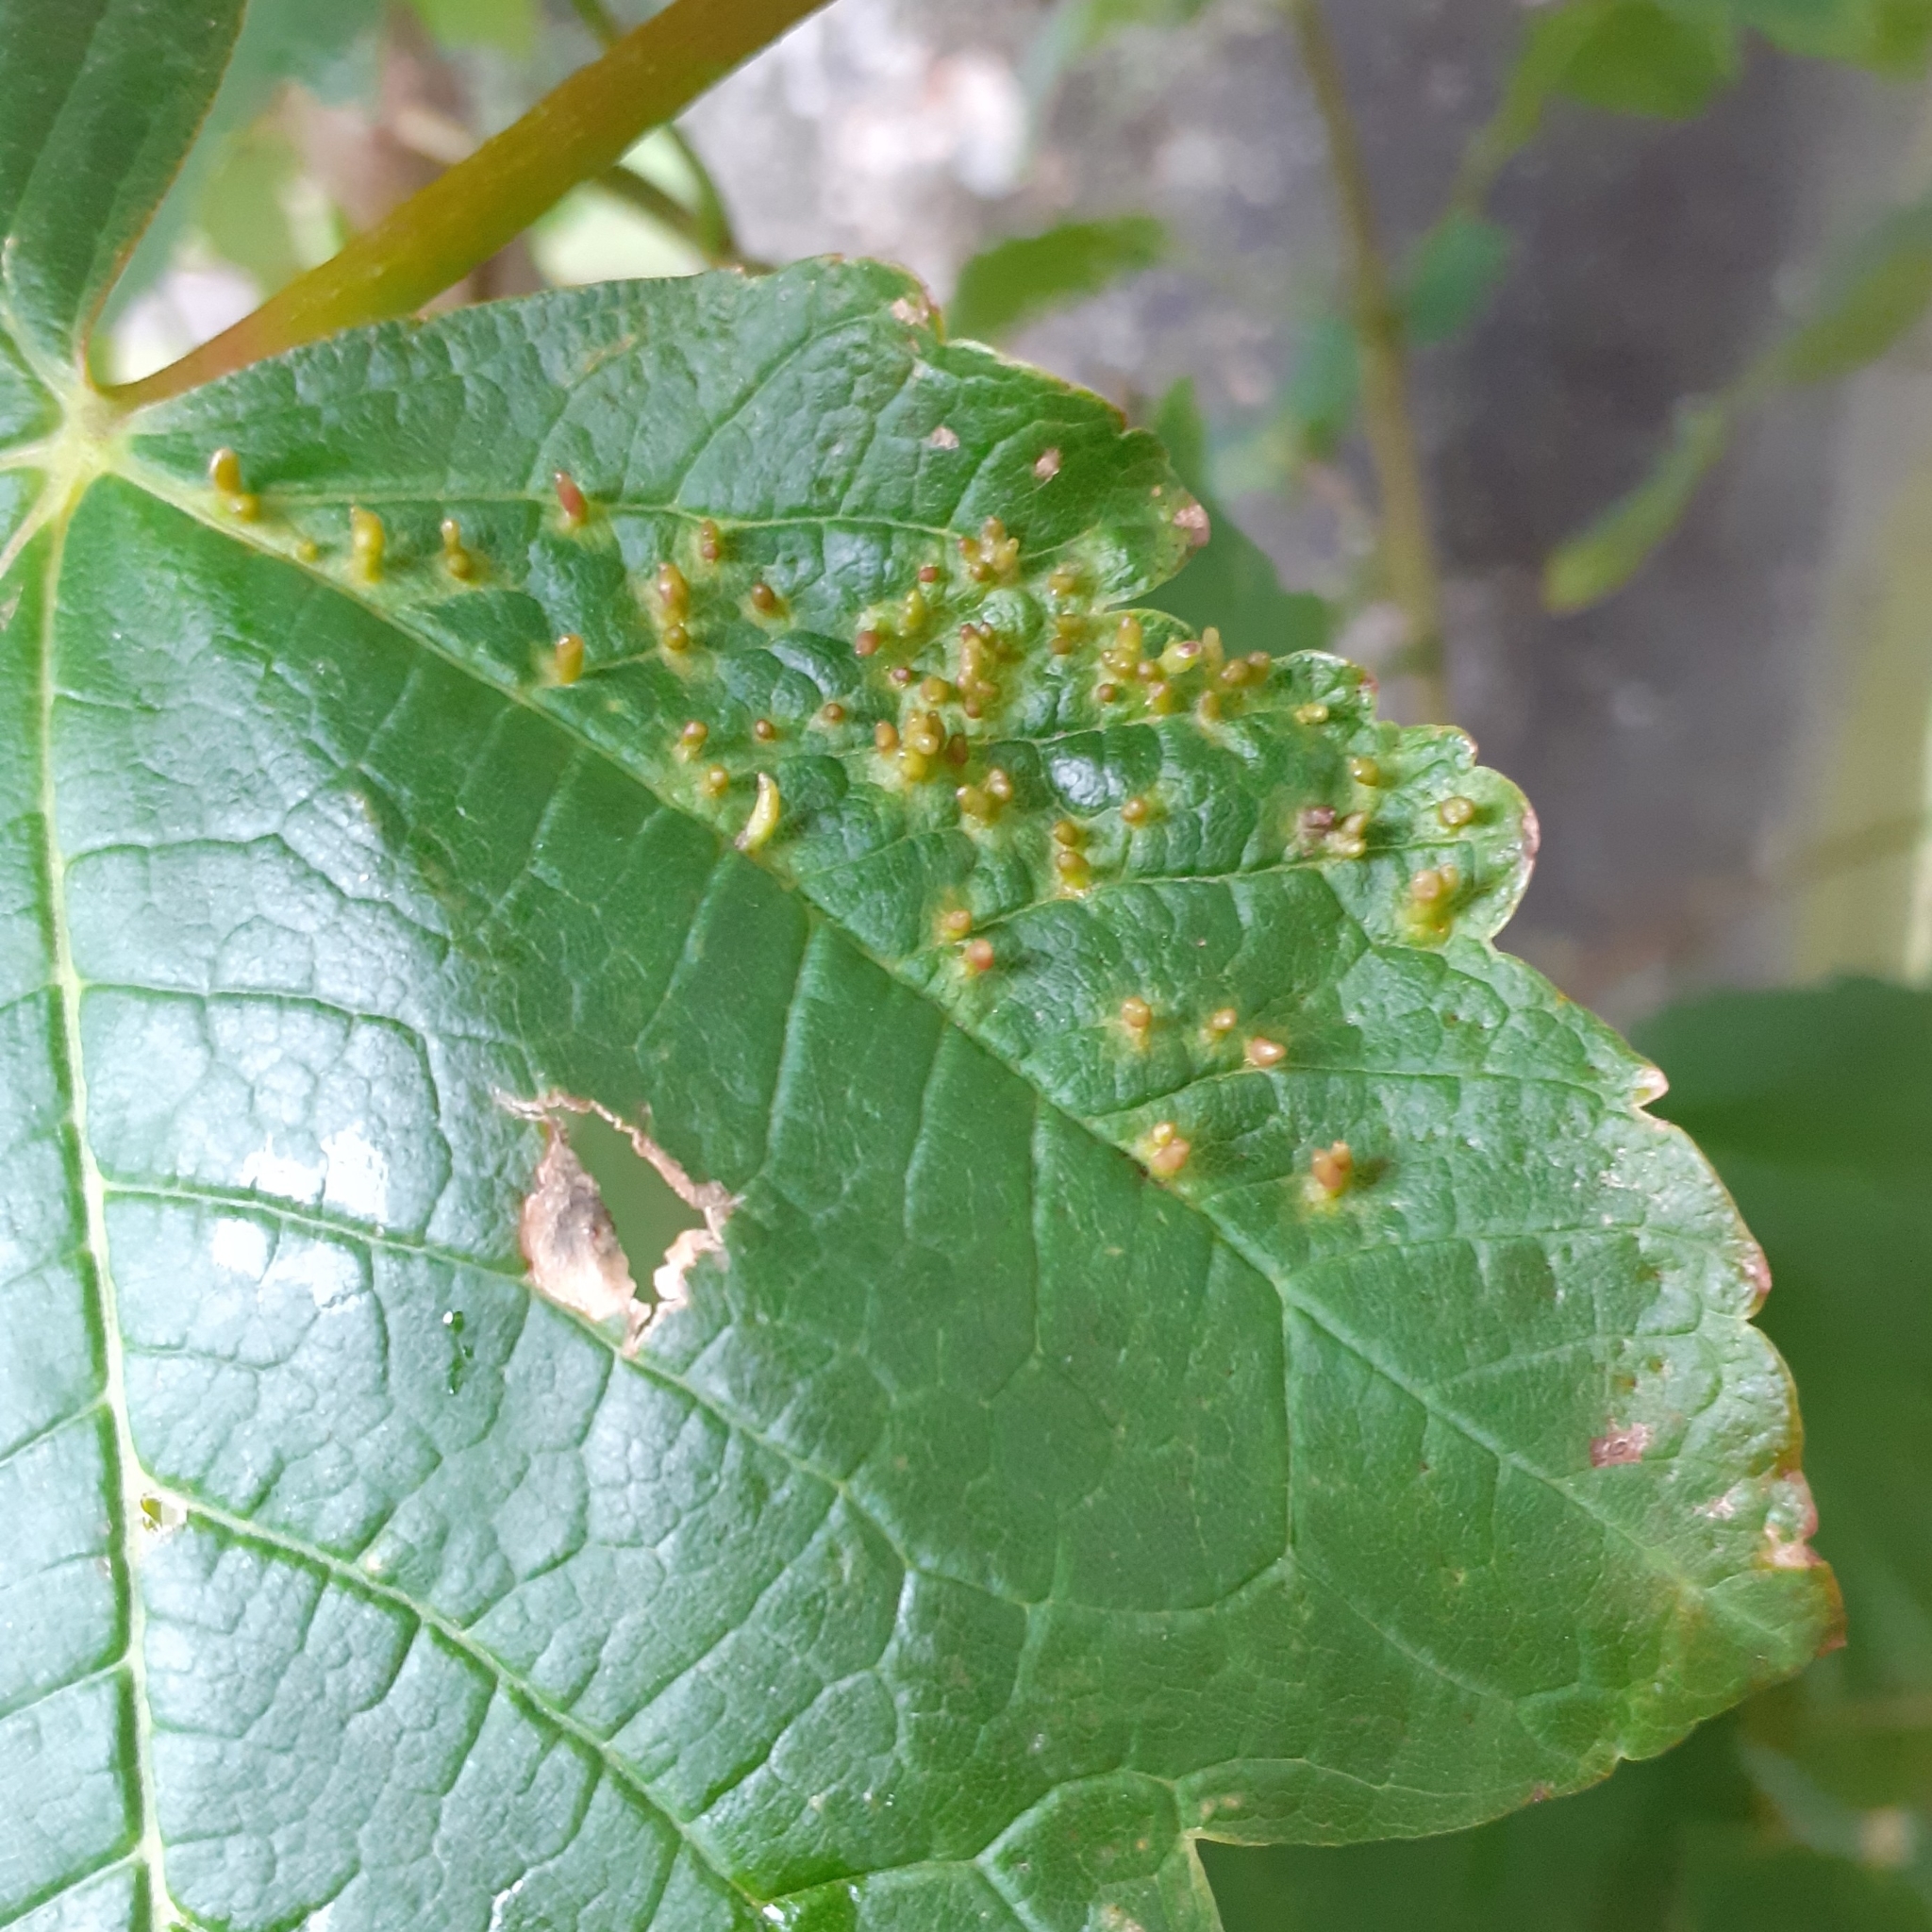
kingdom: Animalia
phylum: Arthropoda
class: Arachnida
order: Trombidiformes
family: Eriophyidae
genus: Aceria
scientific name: Aceria cephaloneus
